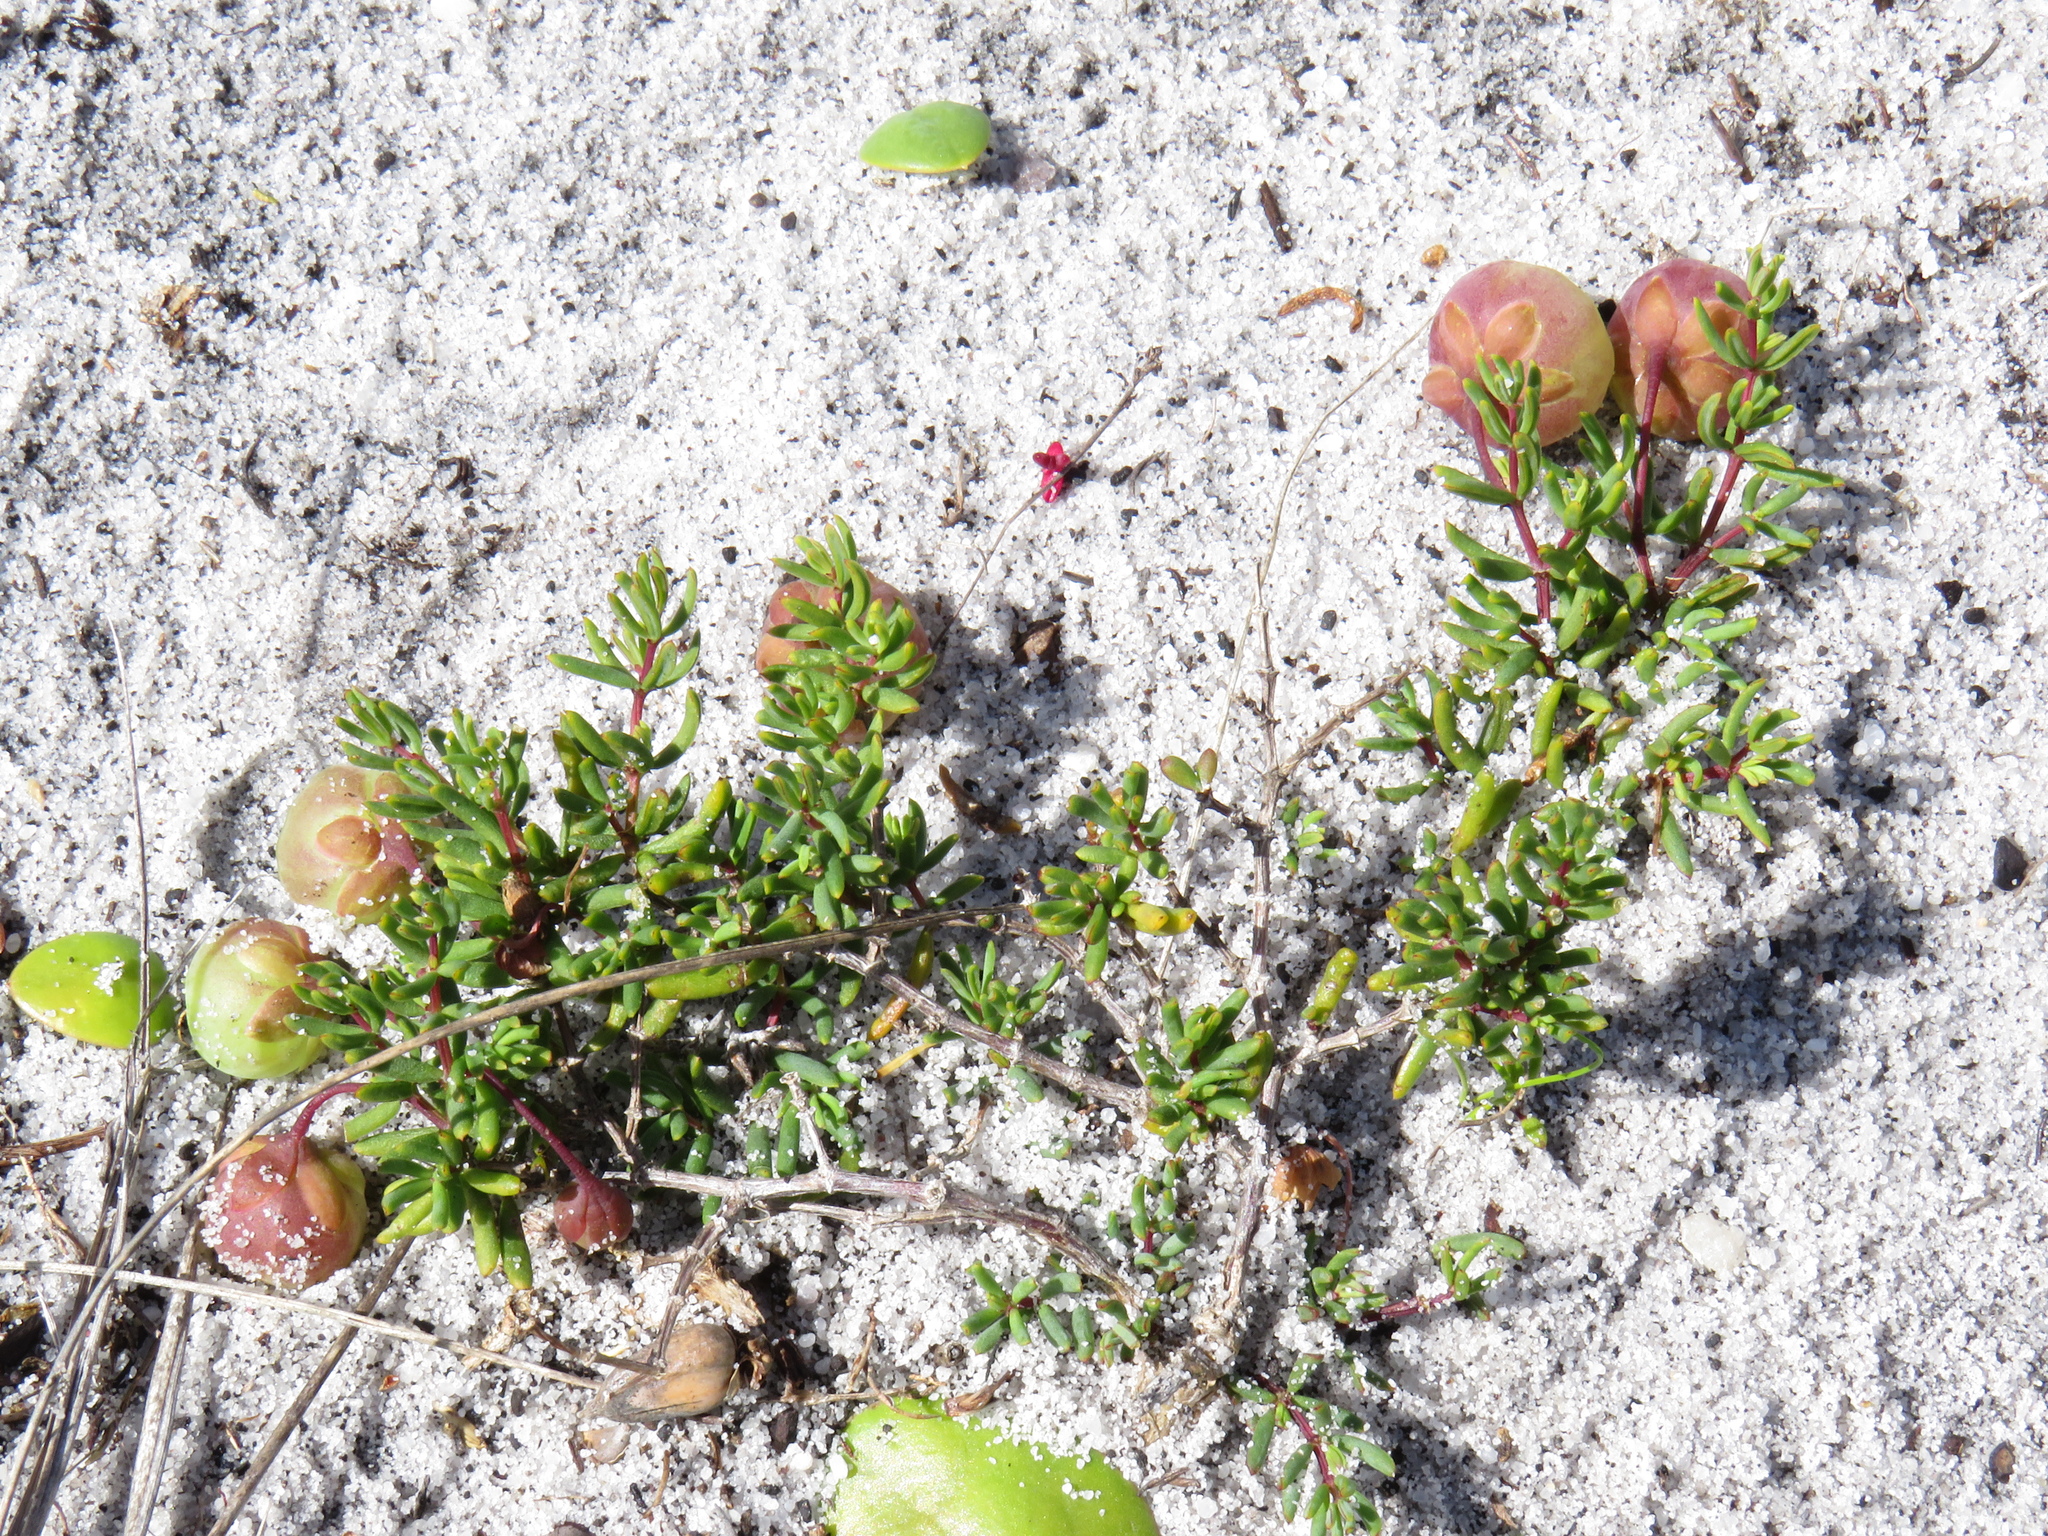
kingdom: Plantae
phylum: Tracheophyta
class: Magnoliopsida
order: Zygophyllales
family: Zygophyllaceae
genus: Roepera
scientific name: Roepera spinosa
